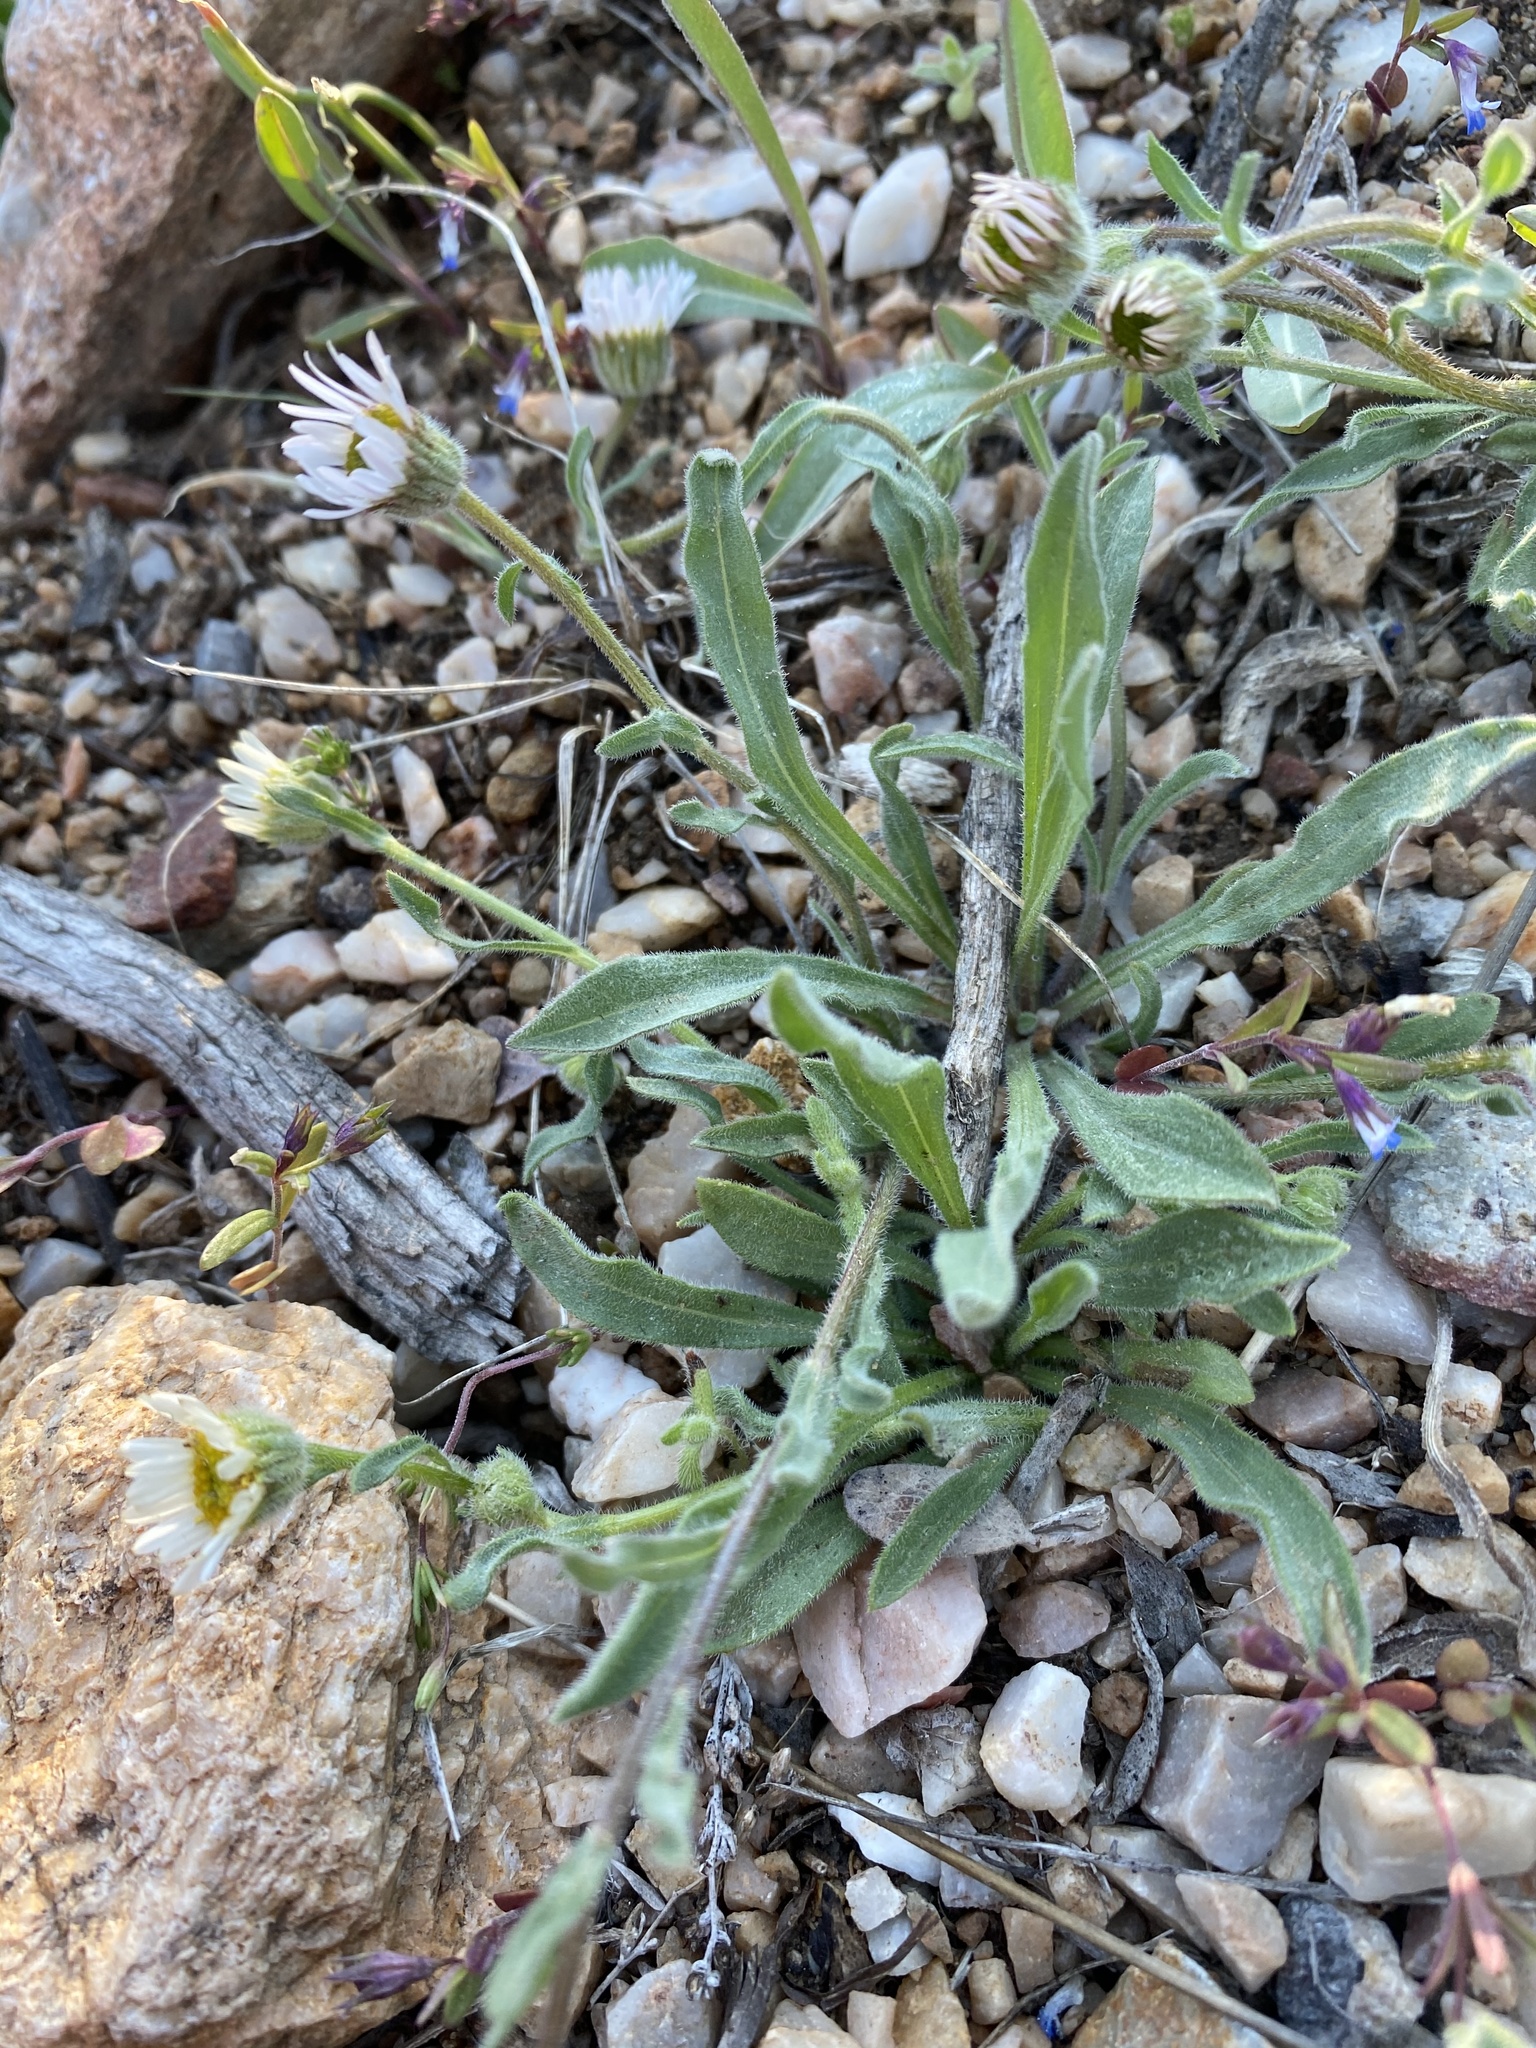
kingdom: Plantae
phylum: Tracheophyta
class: Magnoliopsida
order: Asterales
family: Asteraceae
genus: Erigeron
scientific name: Erigeron jonesii
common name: Jones's fleabane
